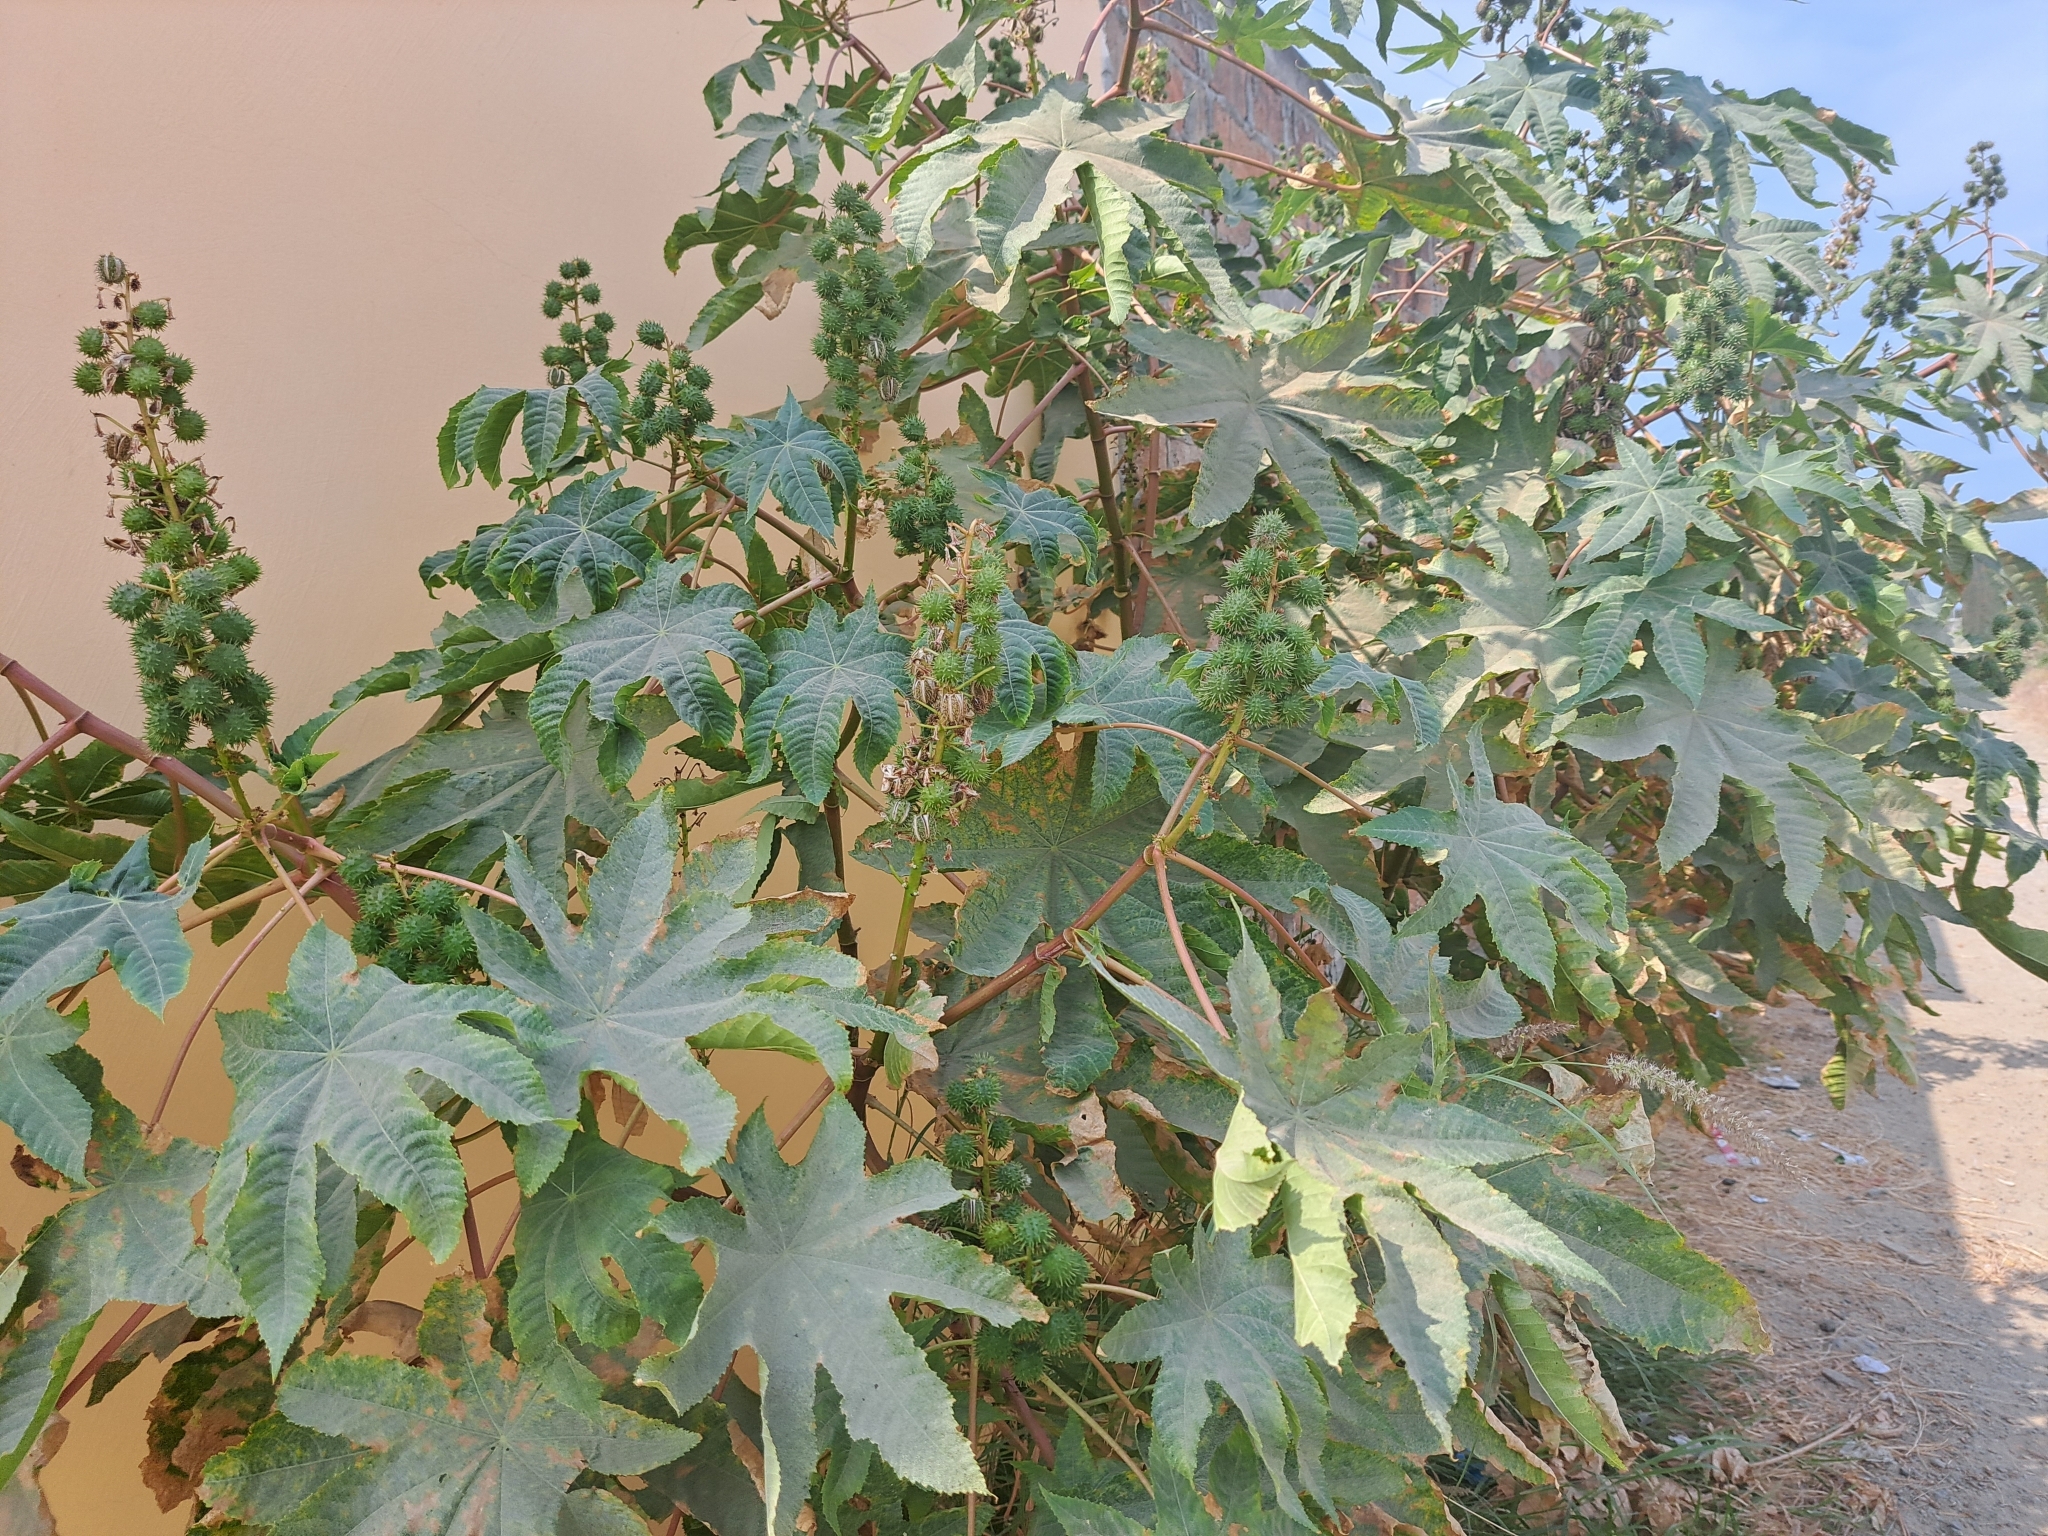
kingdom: Plantae
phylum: Tracheophyta
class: Magnoliopsida
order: Malpighiales
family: Euphorbiaceae
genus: Ricinus
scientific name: Ricinus communis
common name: Castor-oil-plant
